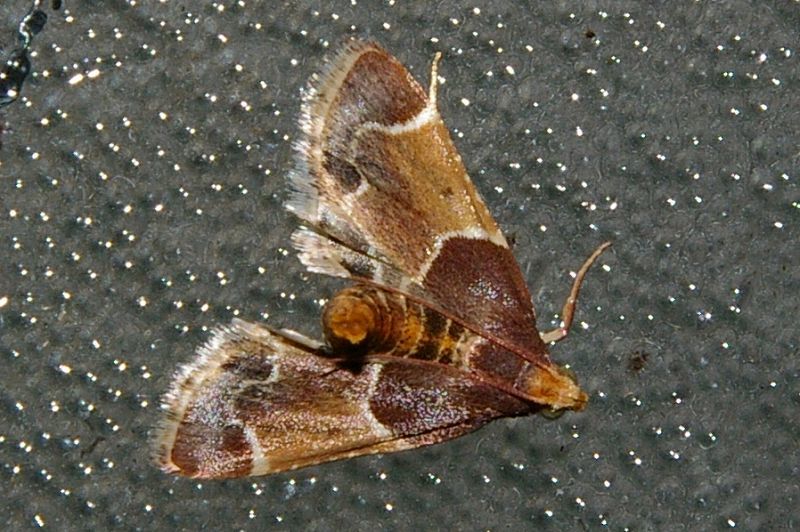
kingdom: Animalia
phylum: Arthropoda
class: Insecta
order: Lepidoptera
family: Pyralidae
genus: Pyralis
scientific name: Pyralis farinalis
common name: Meal moth
